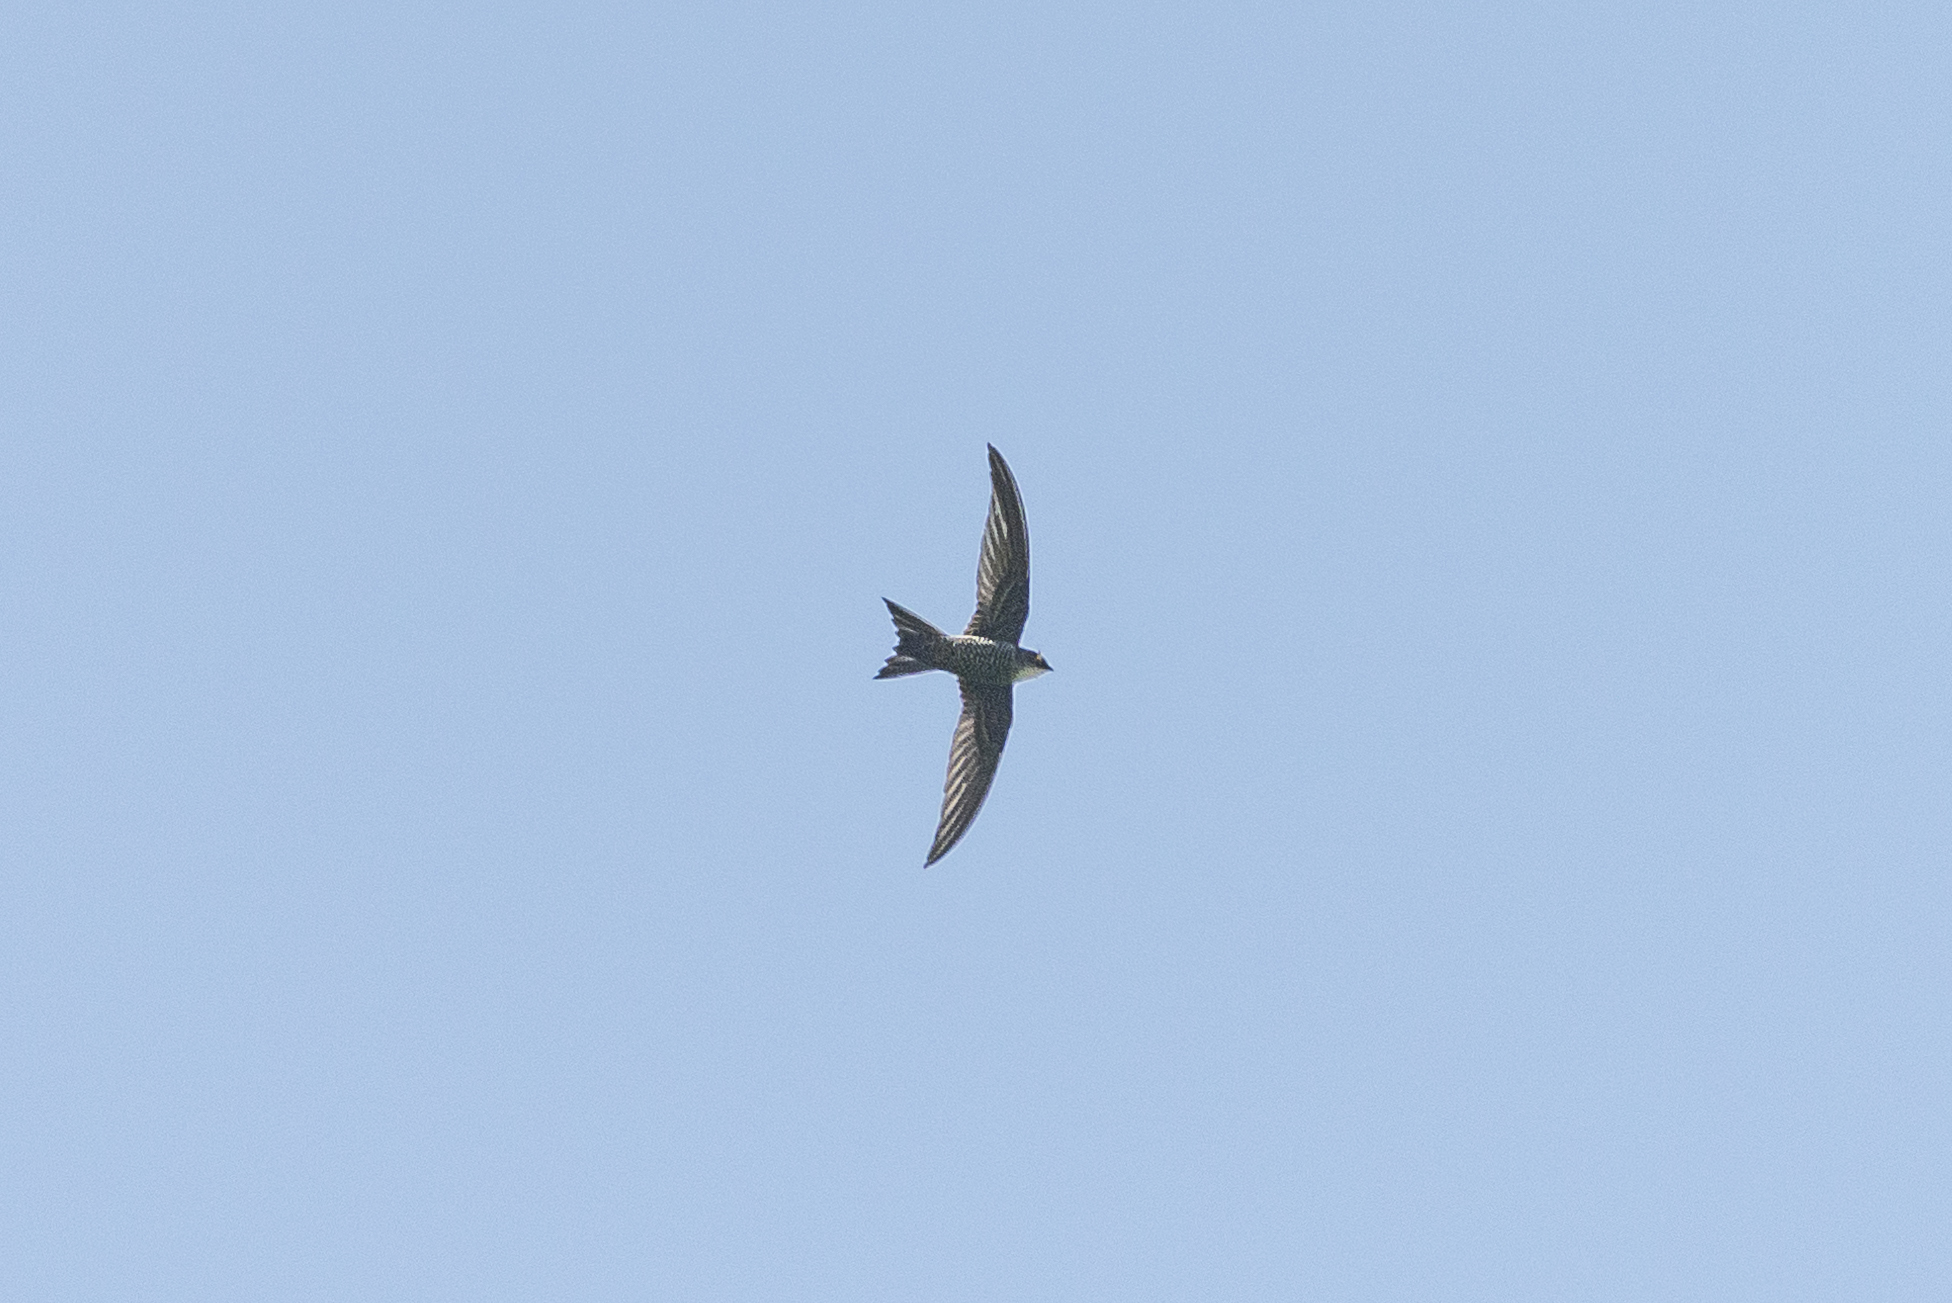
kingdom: Animalia
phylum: Chordata
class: Aves
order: Apodiformes
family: Apodidae
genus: Apus
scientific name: Apus pacificus
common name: Pacific swift
